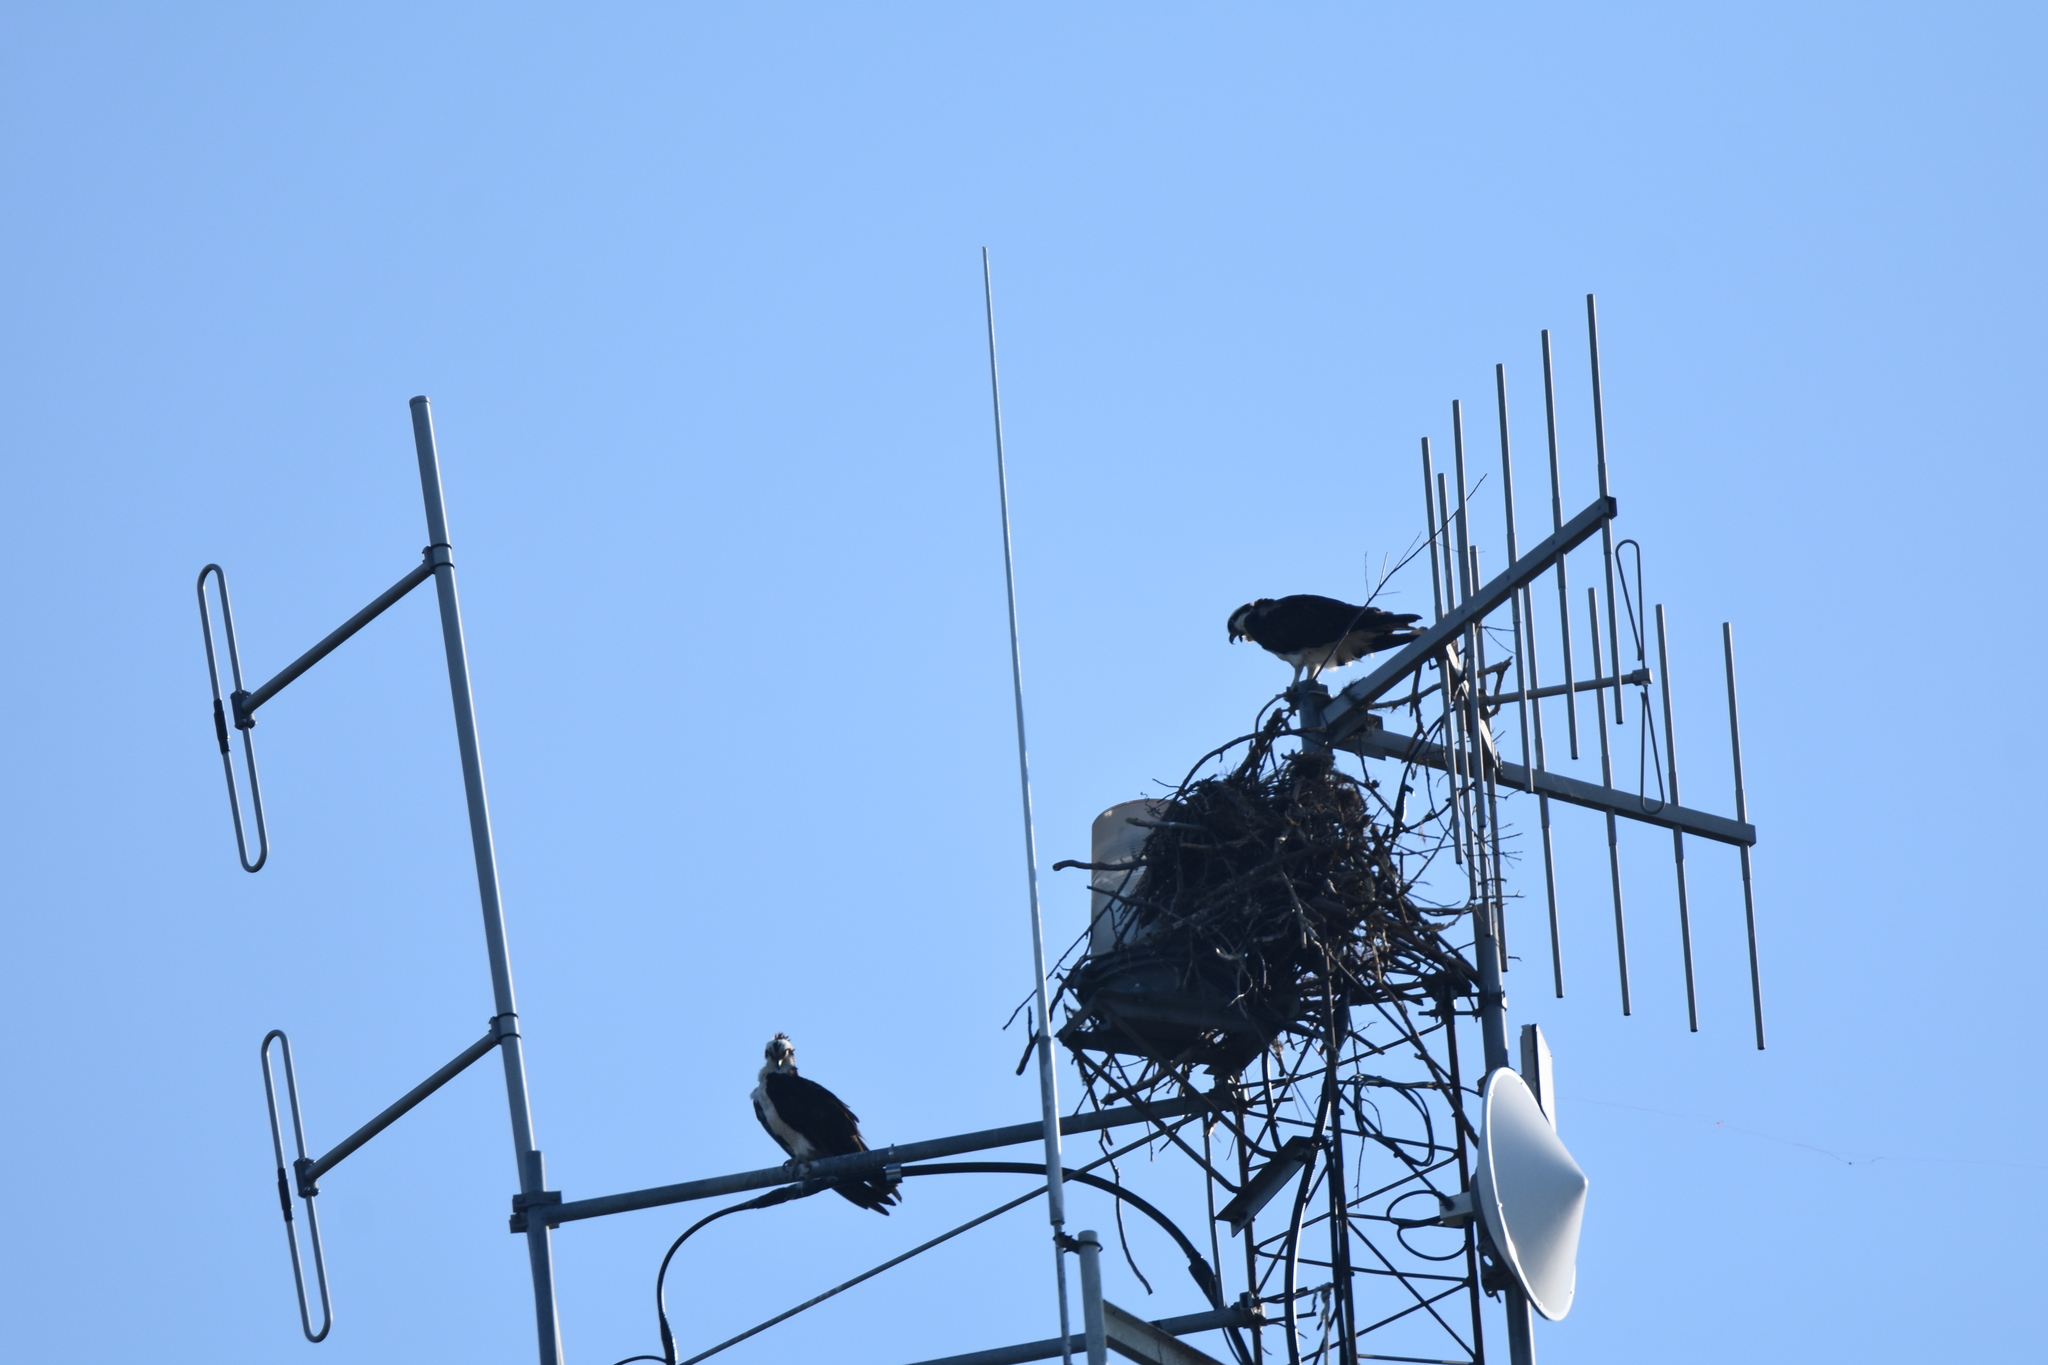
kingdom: Animalia
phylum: Chordata
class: Aves
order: Accipitriformes
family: Pandionidae
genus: Pandion
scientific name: Pandion haliaetus
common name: Osprey
